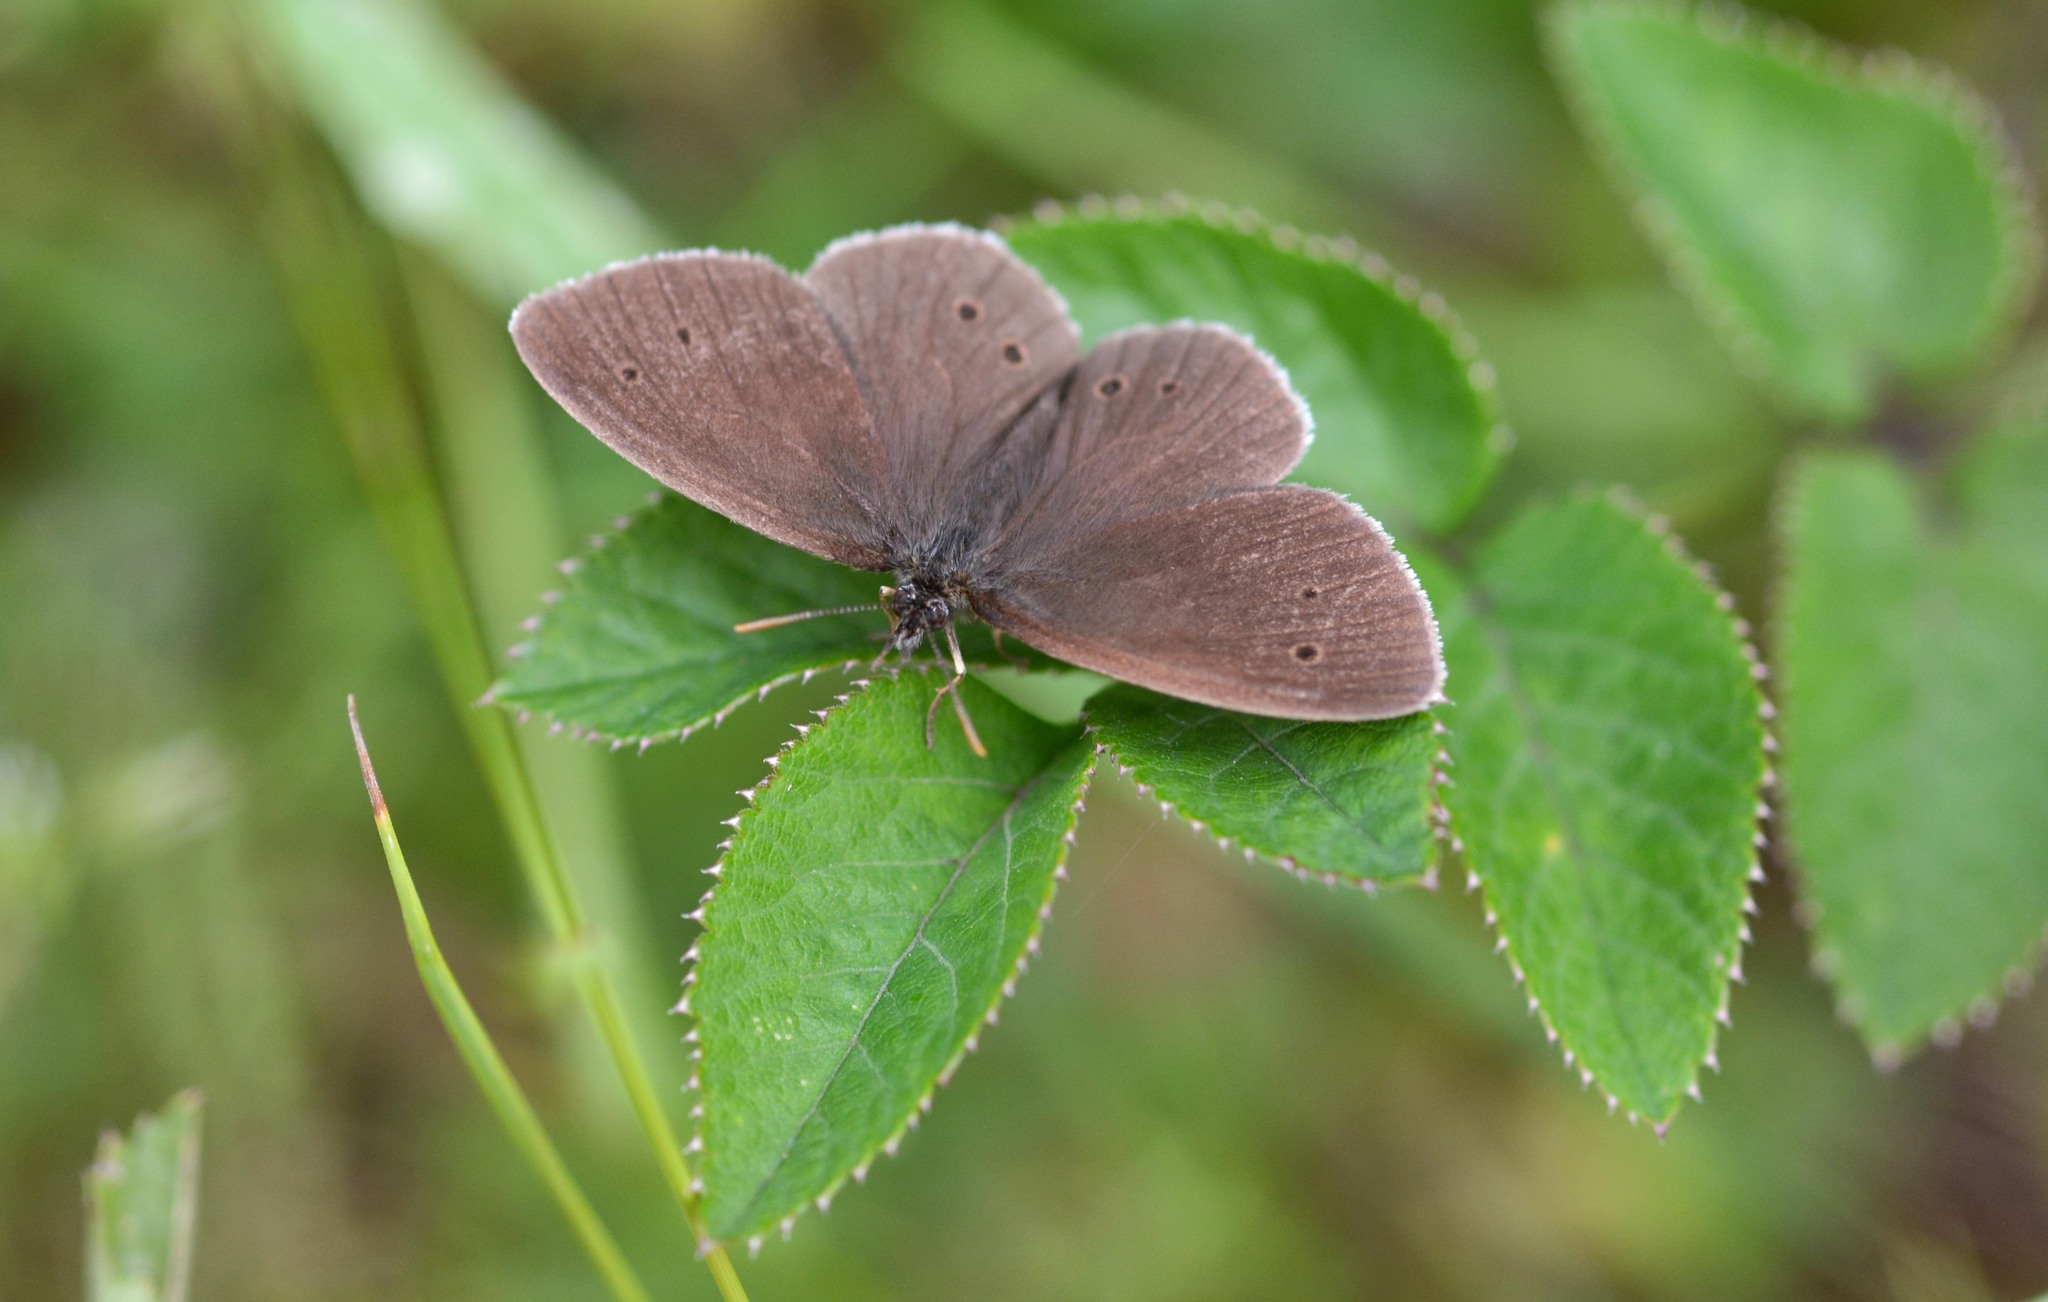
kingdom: Animalia
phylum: Arthropoda
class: Insecta
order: Lepidoptera
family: Nymphalidae
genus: Aphantopus
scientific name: Aphantopus hyperantus
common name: Ringlet
